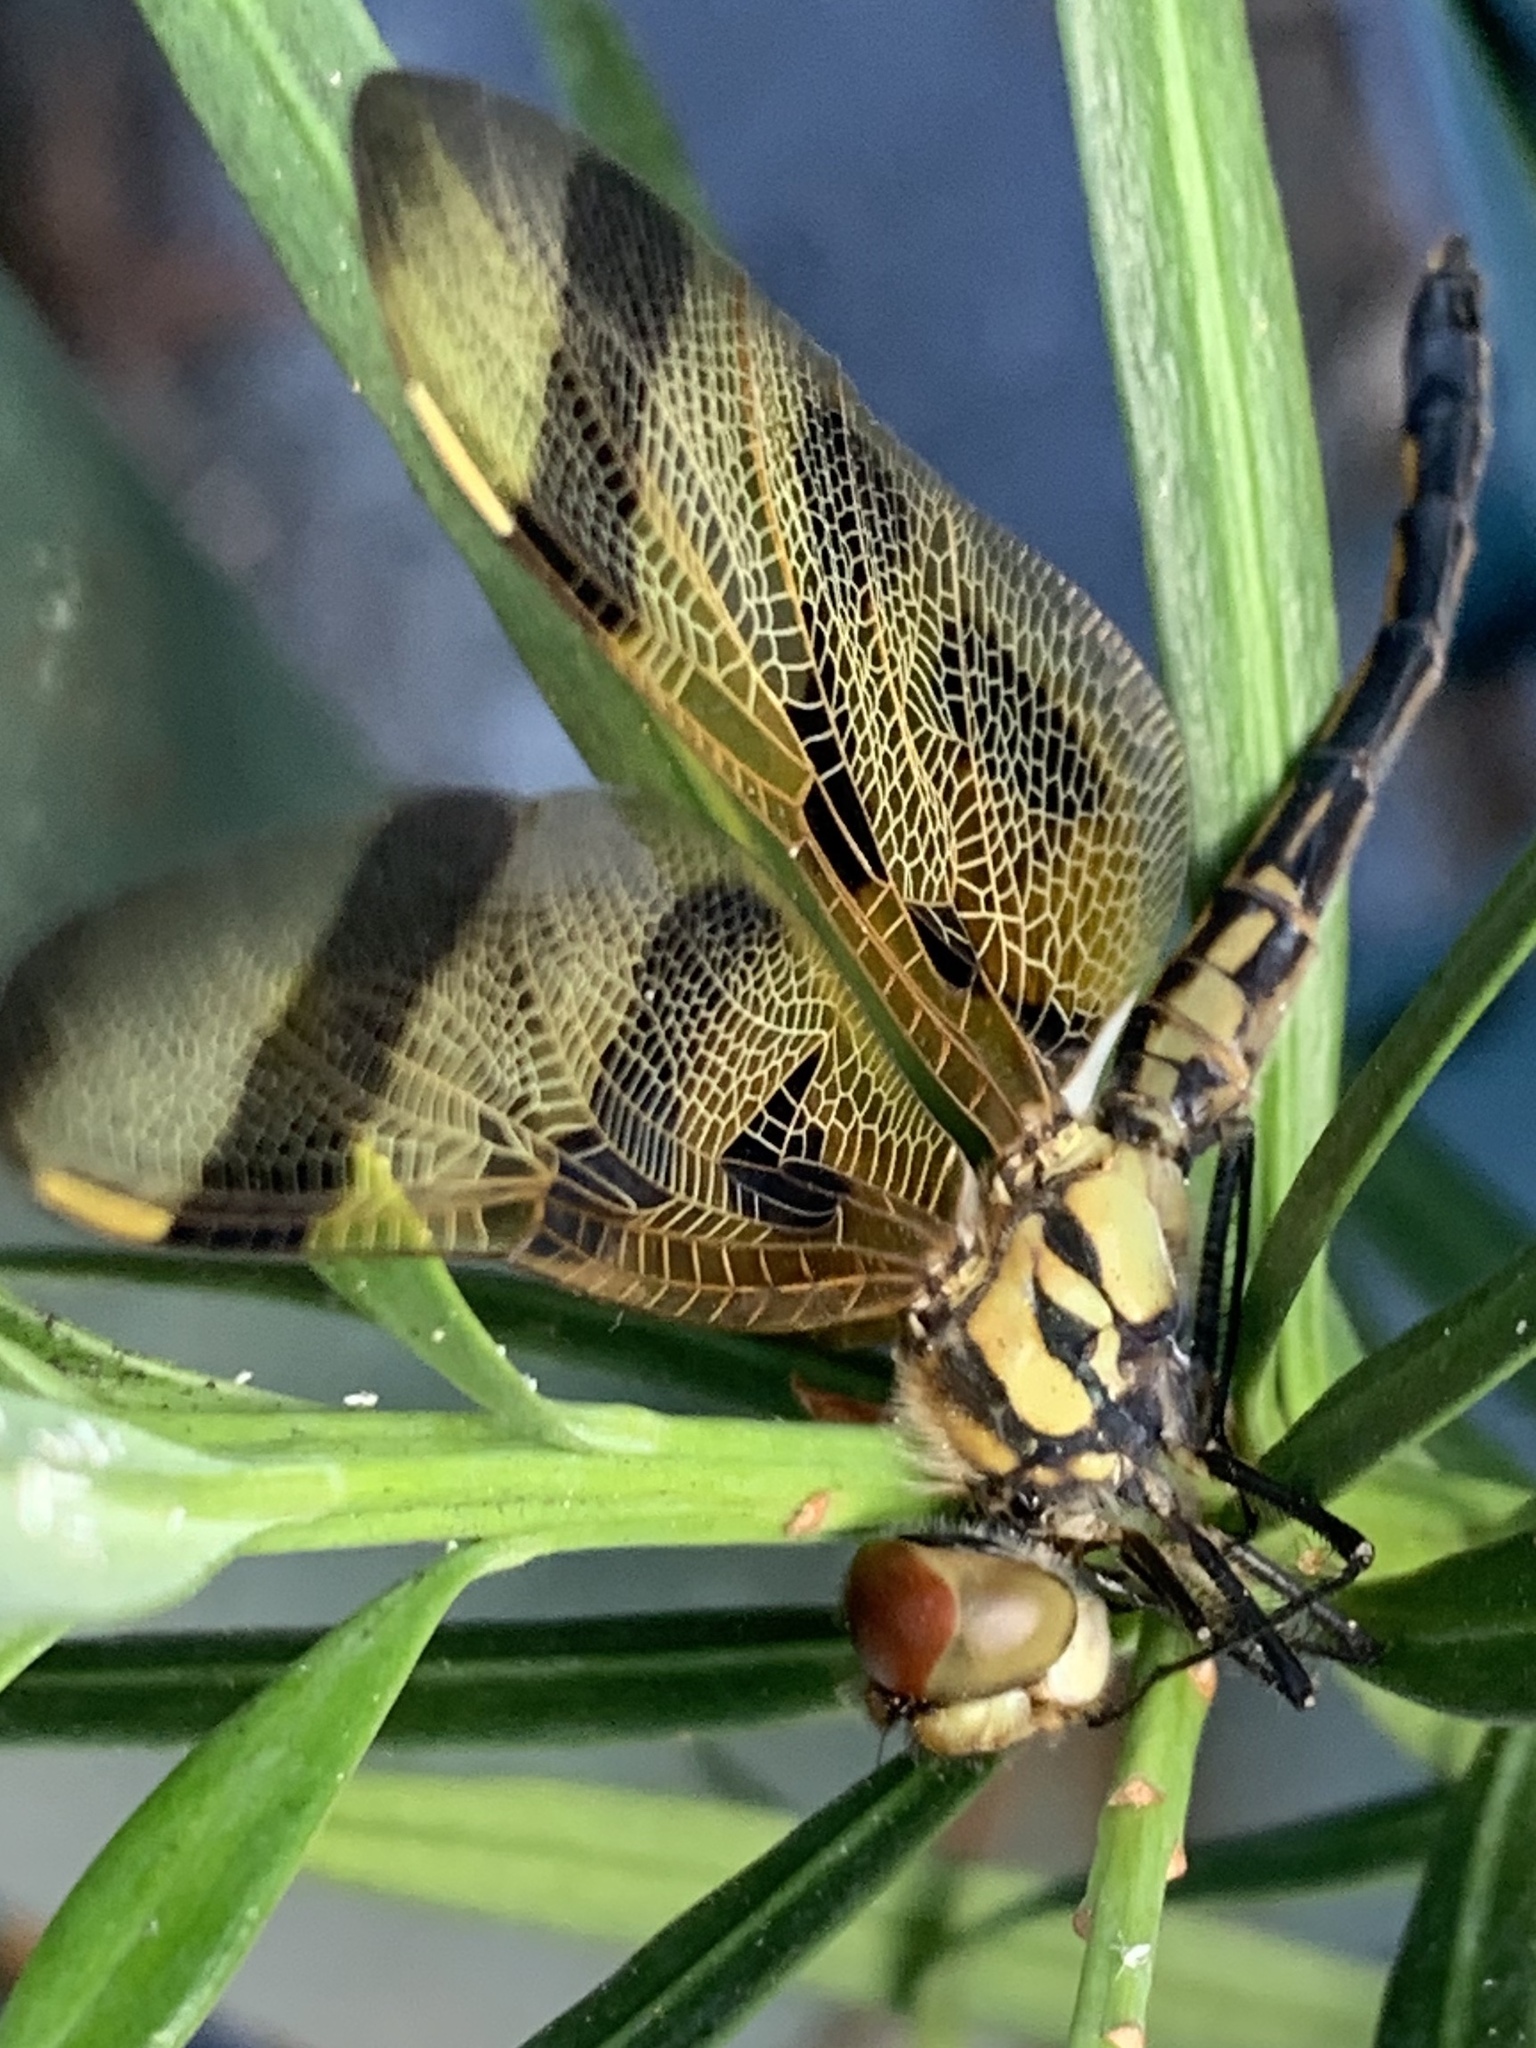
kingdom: Animalia
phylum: Arthropoda
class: Insecta
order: Odonata
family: Libellulidae
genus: Celithemis
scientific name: Celithemis eponina
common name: Halloween pennant
